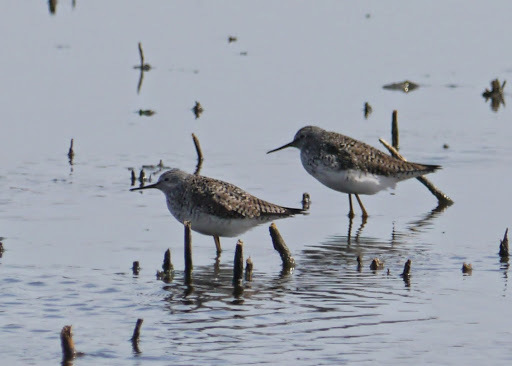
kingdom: Animalia
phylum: Chordata
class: Aves
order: Charadriiformes
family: Scolopacidae
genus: Tringa
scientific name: Tringa flavipes
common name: Lesser yellowlegs
